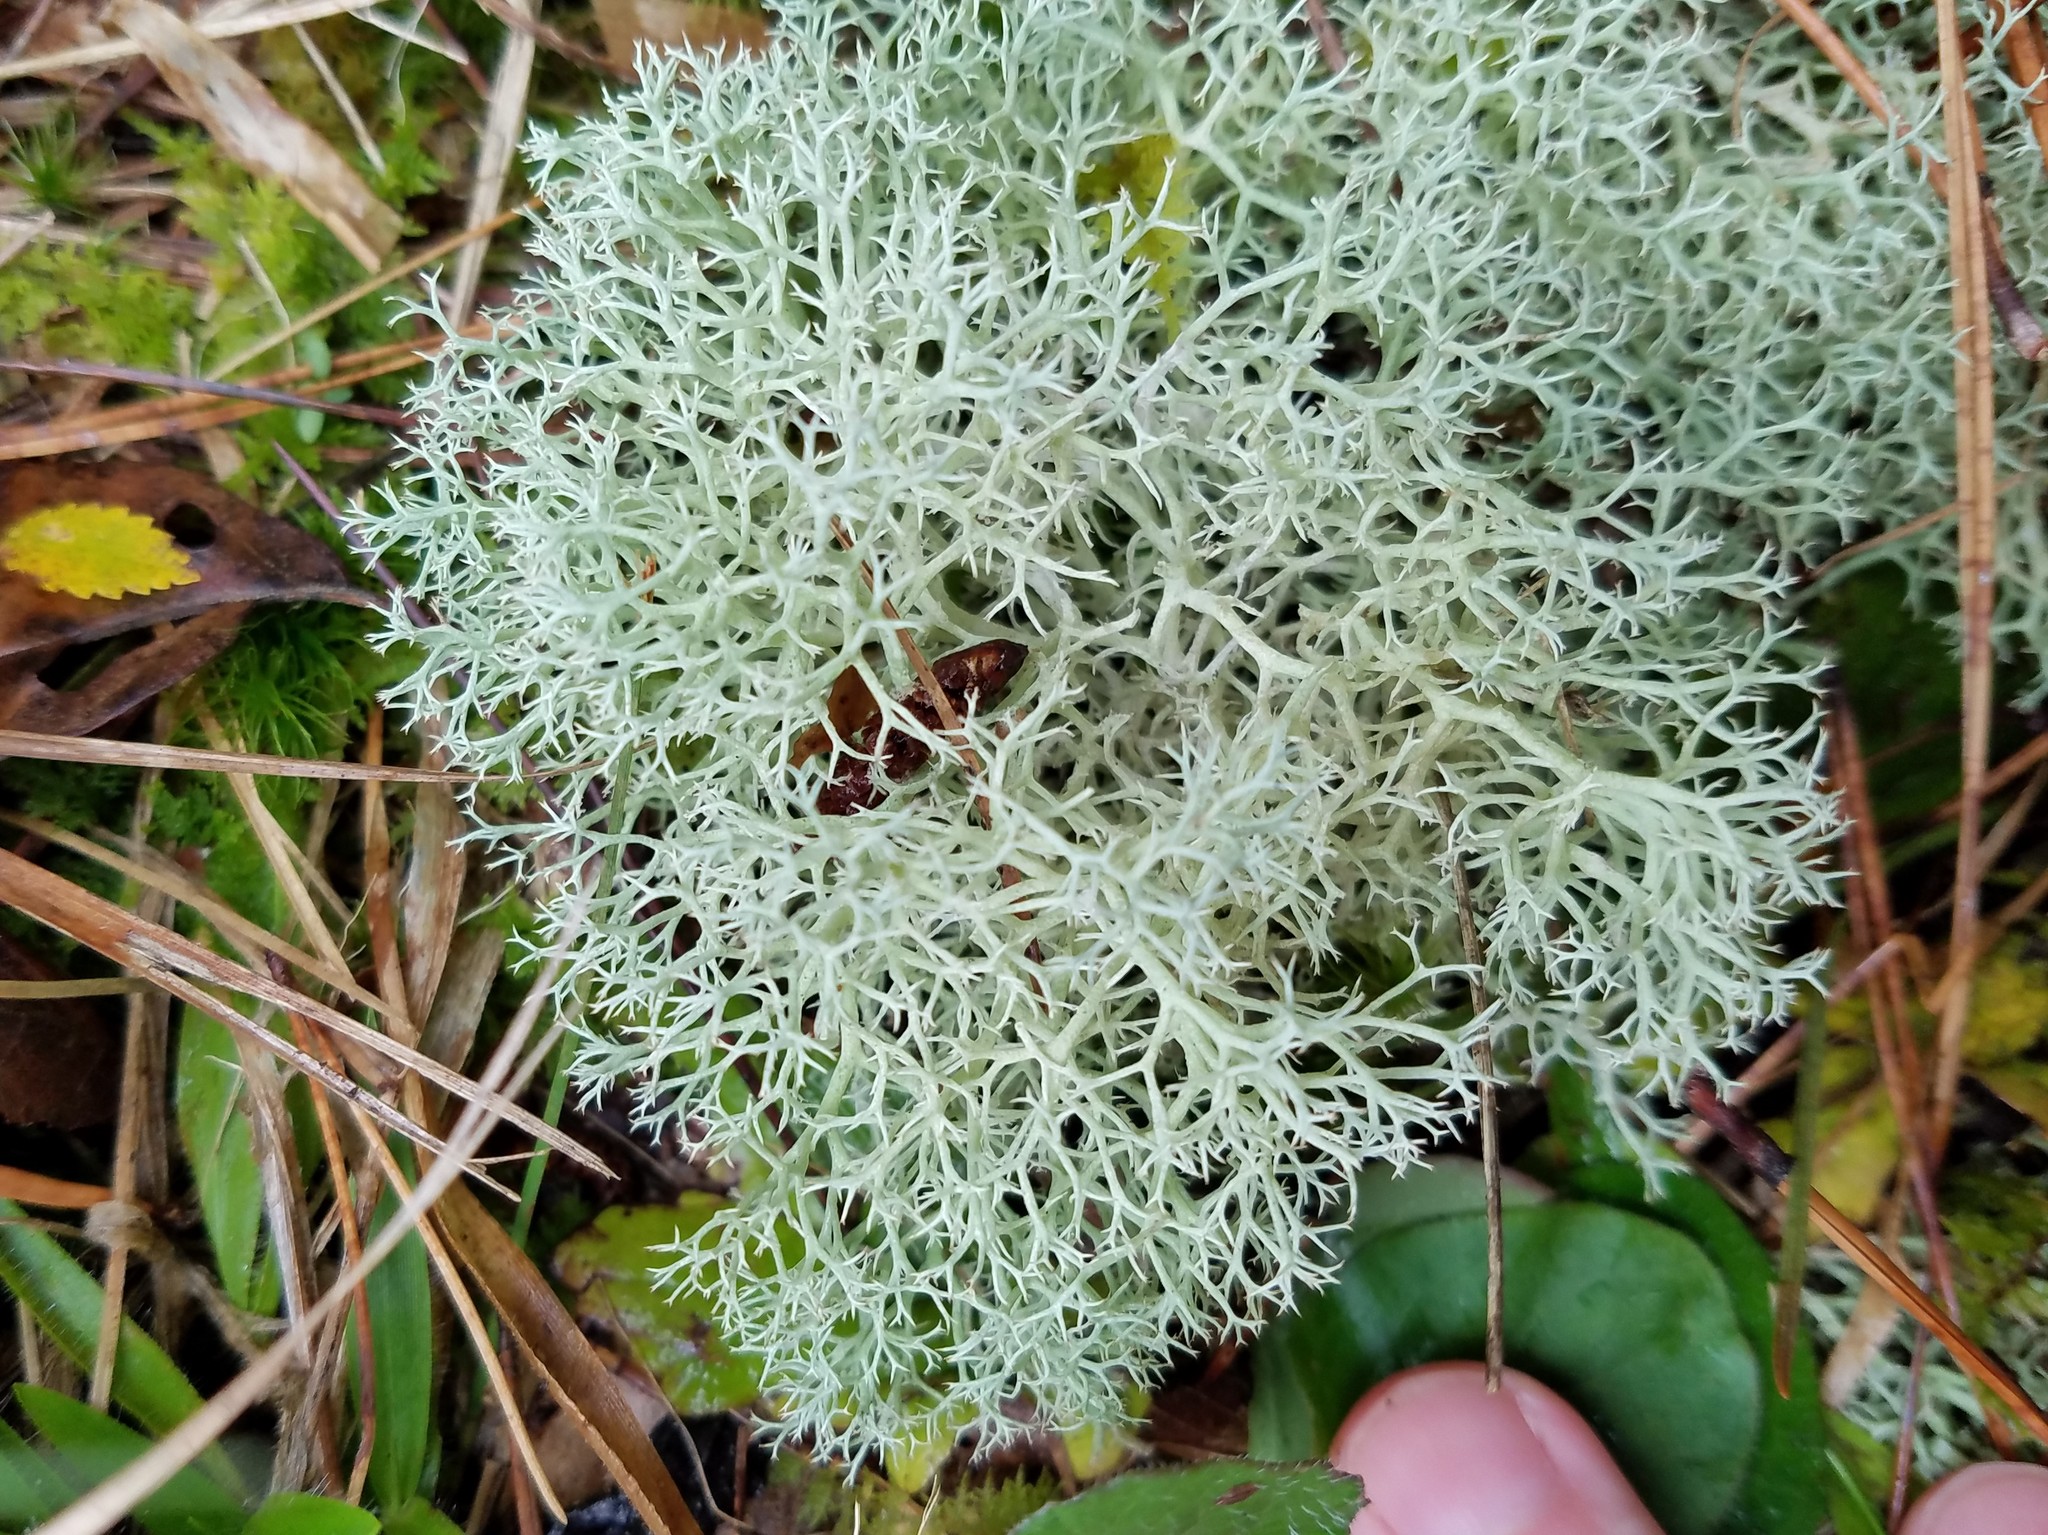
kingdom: Fungi
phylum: Ascomycota
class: Lecanoromycetes
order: Lecanorales
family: Cladoniaceae
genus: Cladonia
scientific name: Cladonia subtenuis
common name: Dixie reindeer lichen
